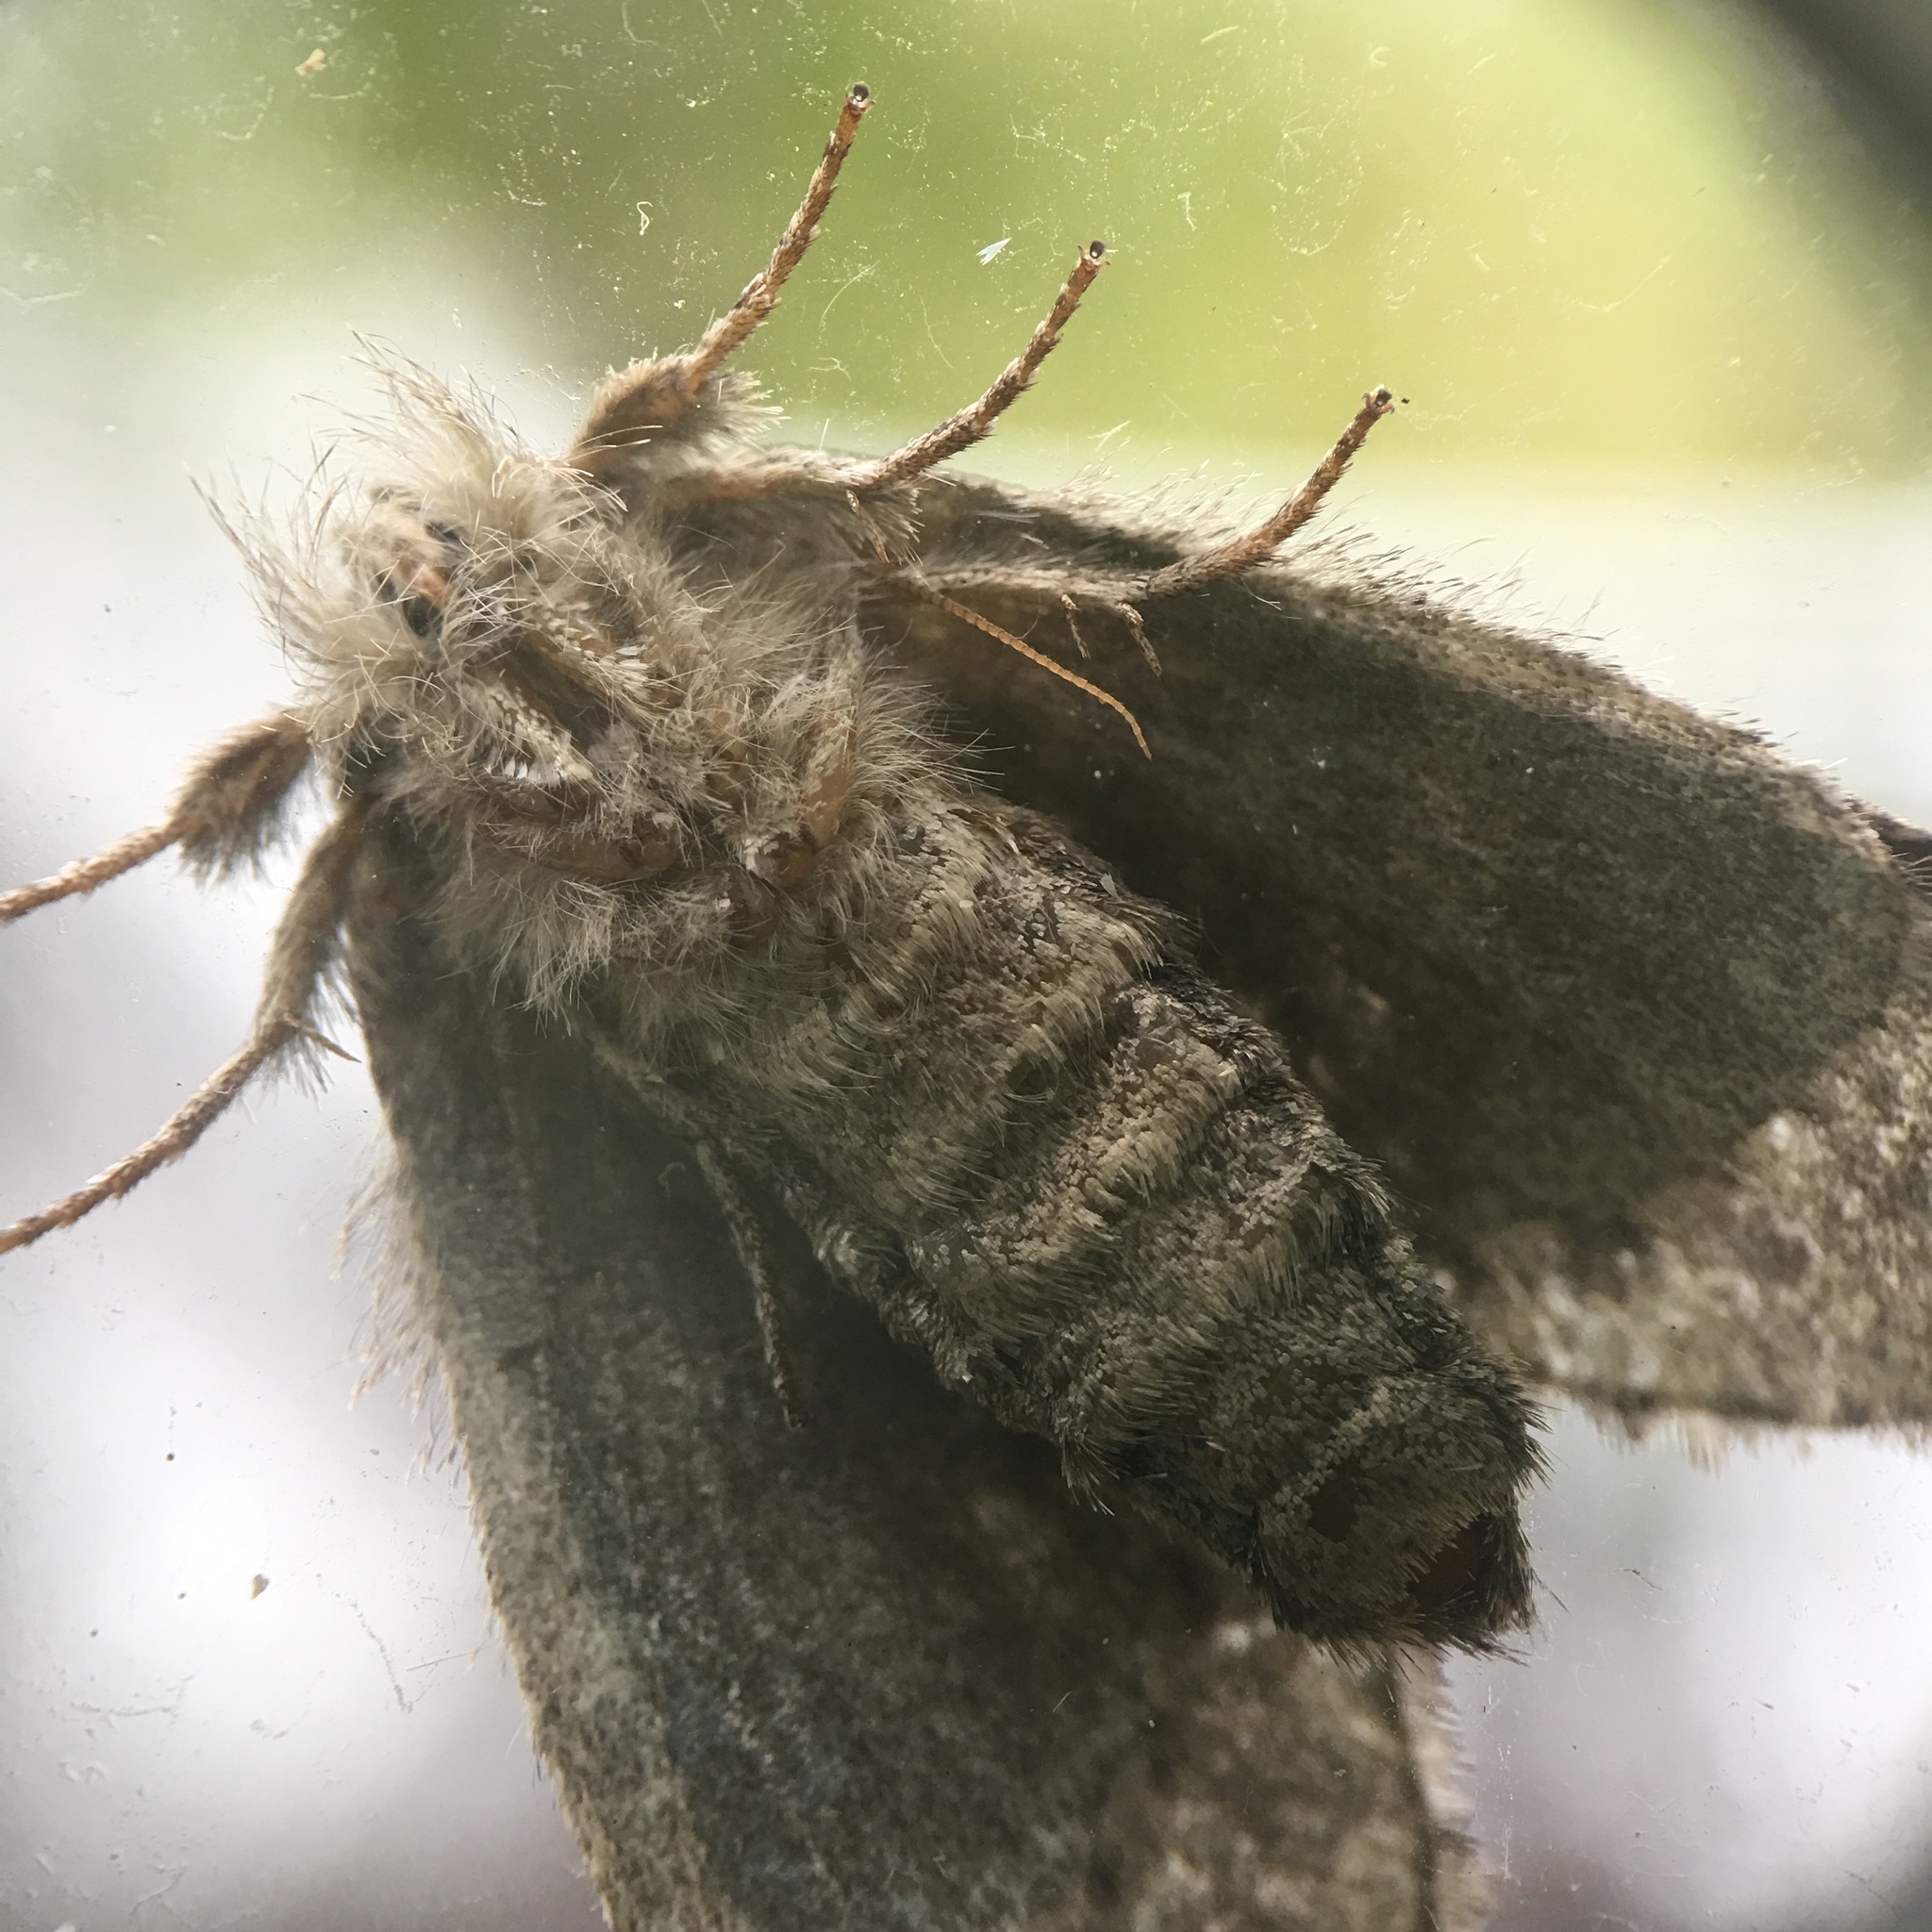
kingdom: Animalia
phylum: Arthropoda
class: Insecta
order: Lepidoptera
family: Notodontidae
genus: Disphragis
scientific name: Disphragis Cecrita guttivitta
